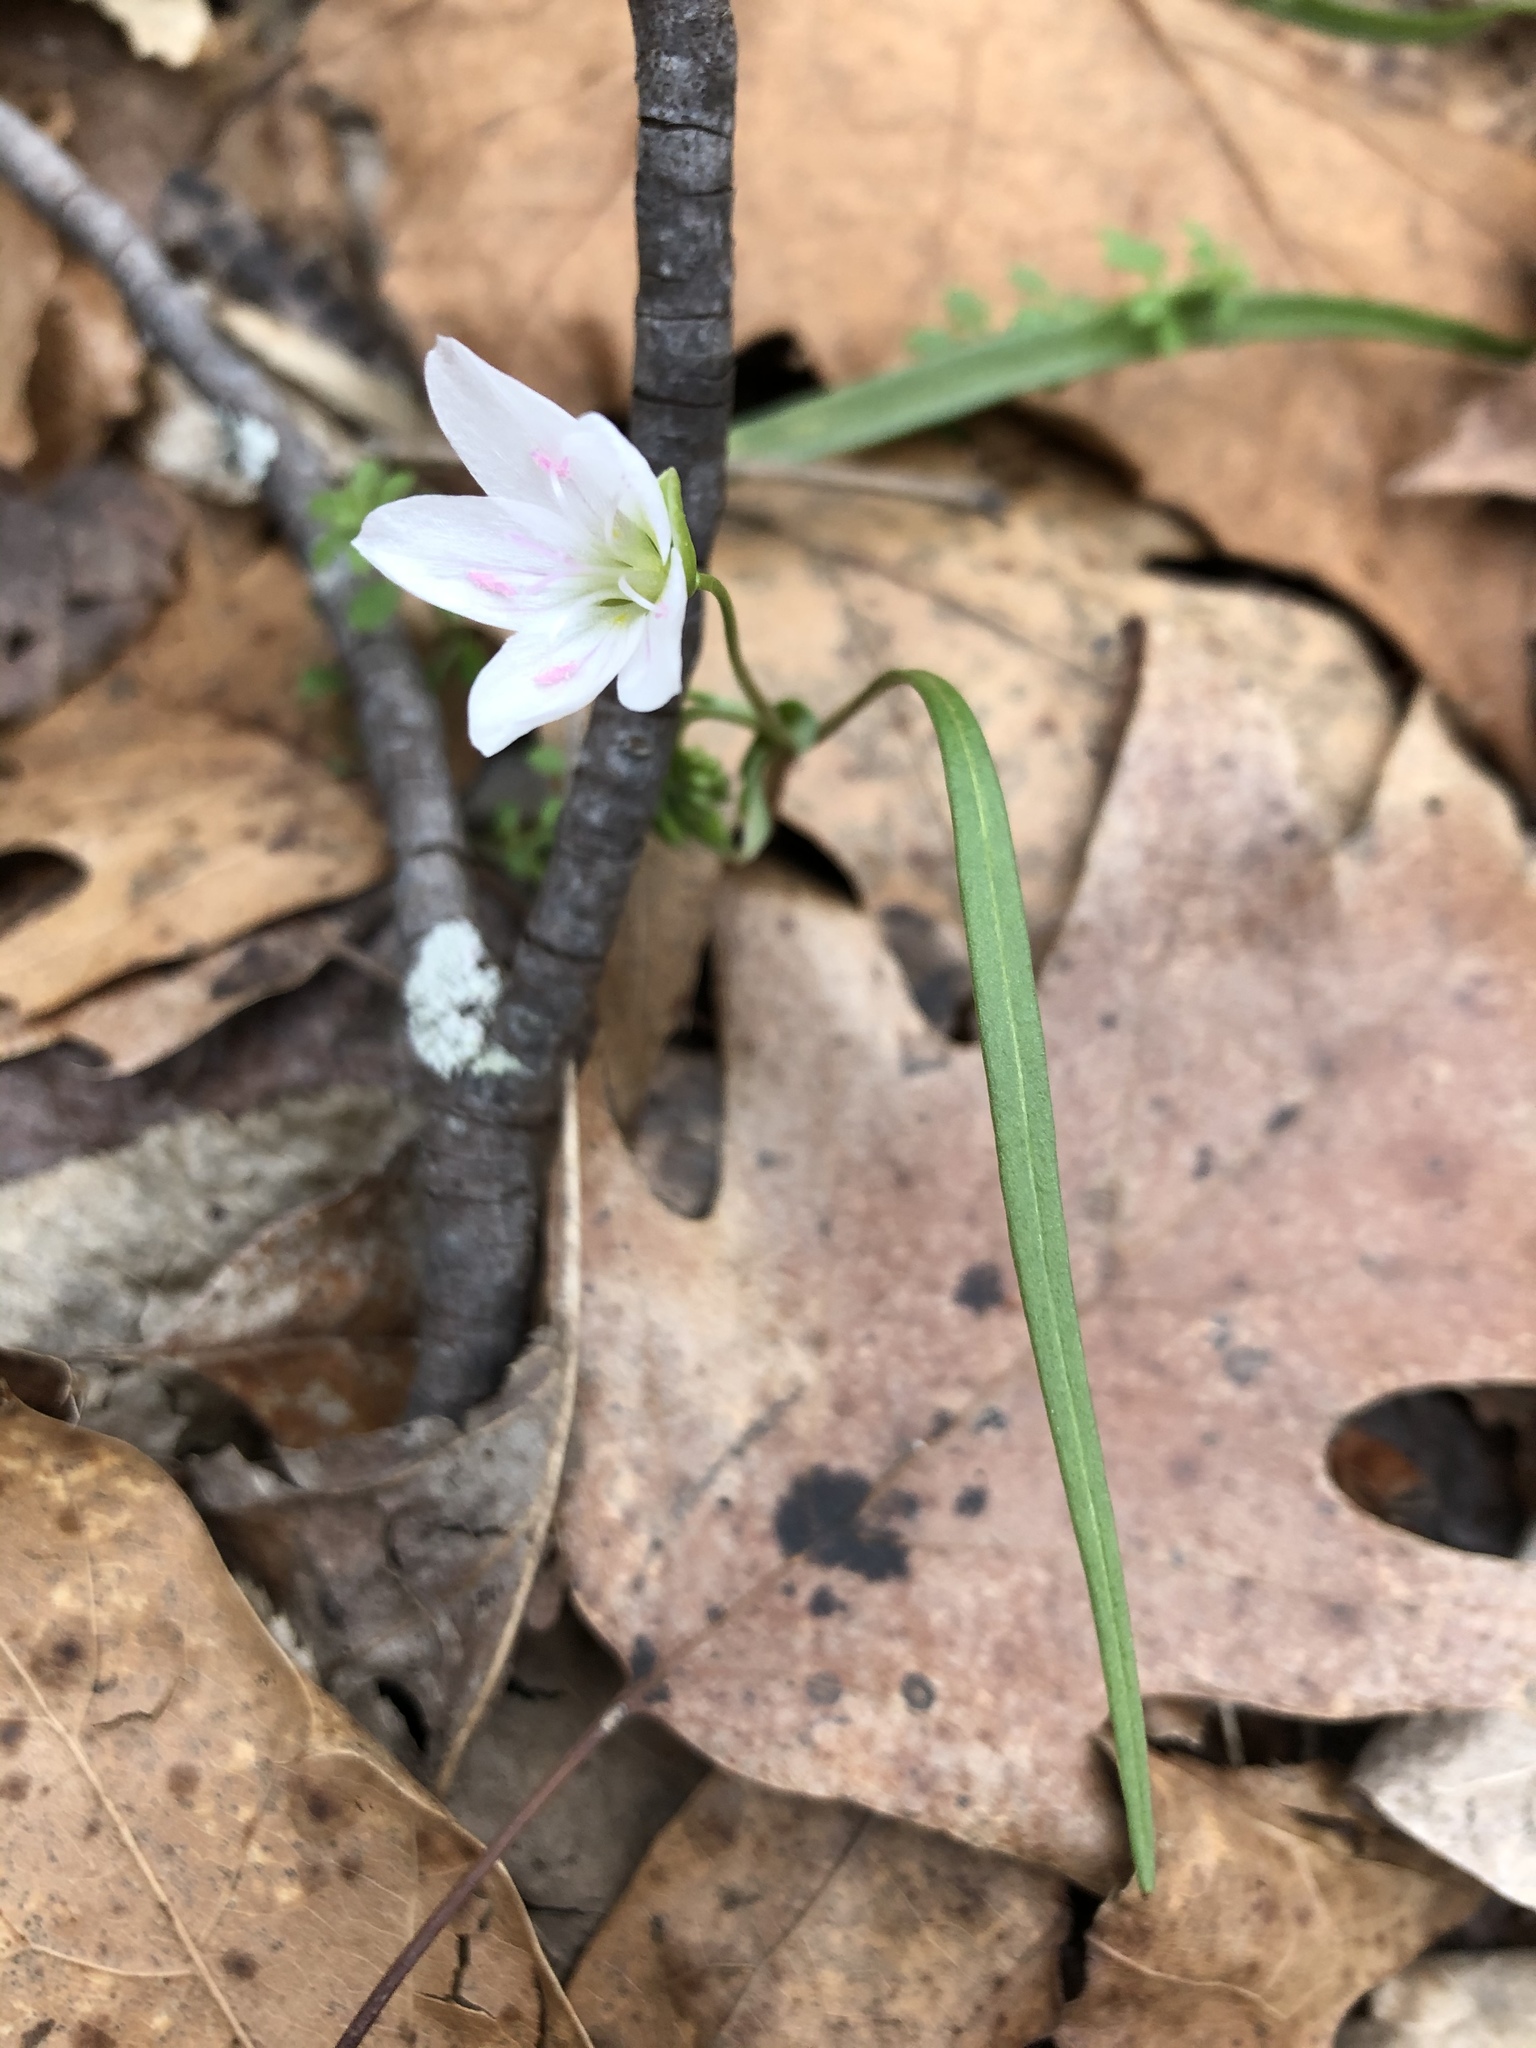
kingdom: Plantae
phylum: Tracheophyta
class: Magnoliopsida
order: Caryophyllales
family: Montiaceae
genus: Claytonia
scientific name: Claytonia virginica
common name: Virginia springbeauty
